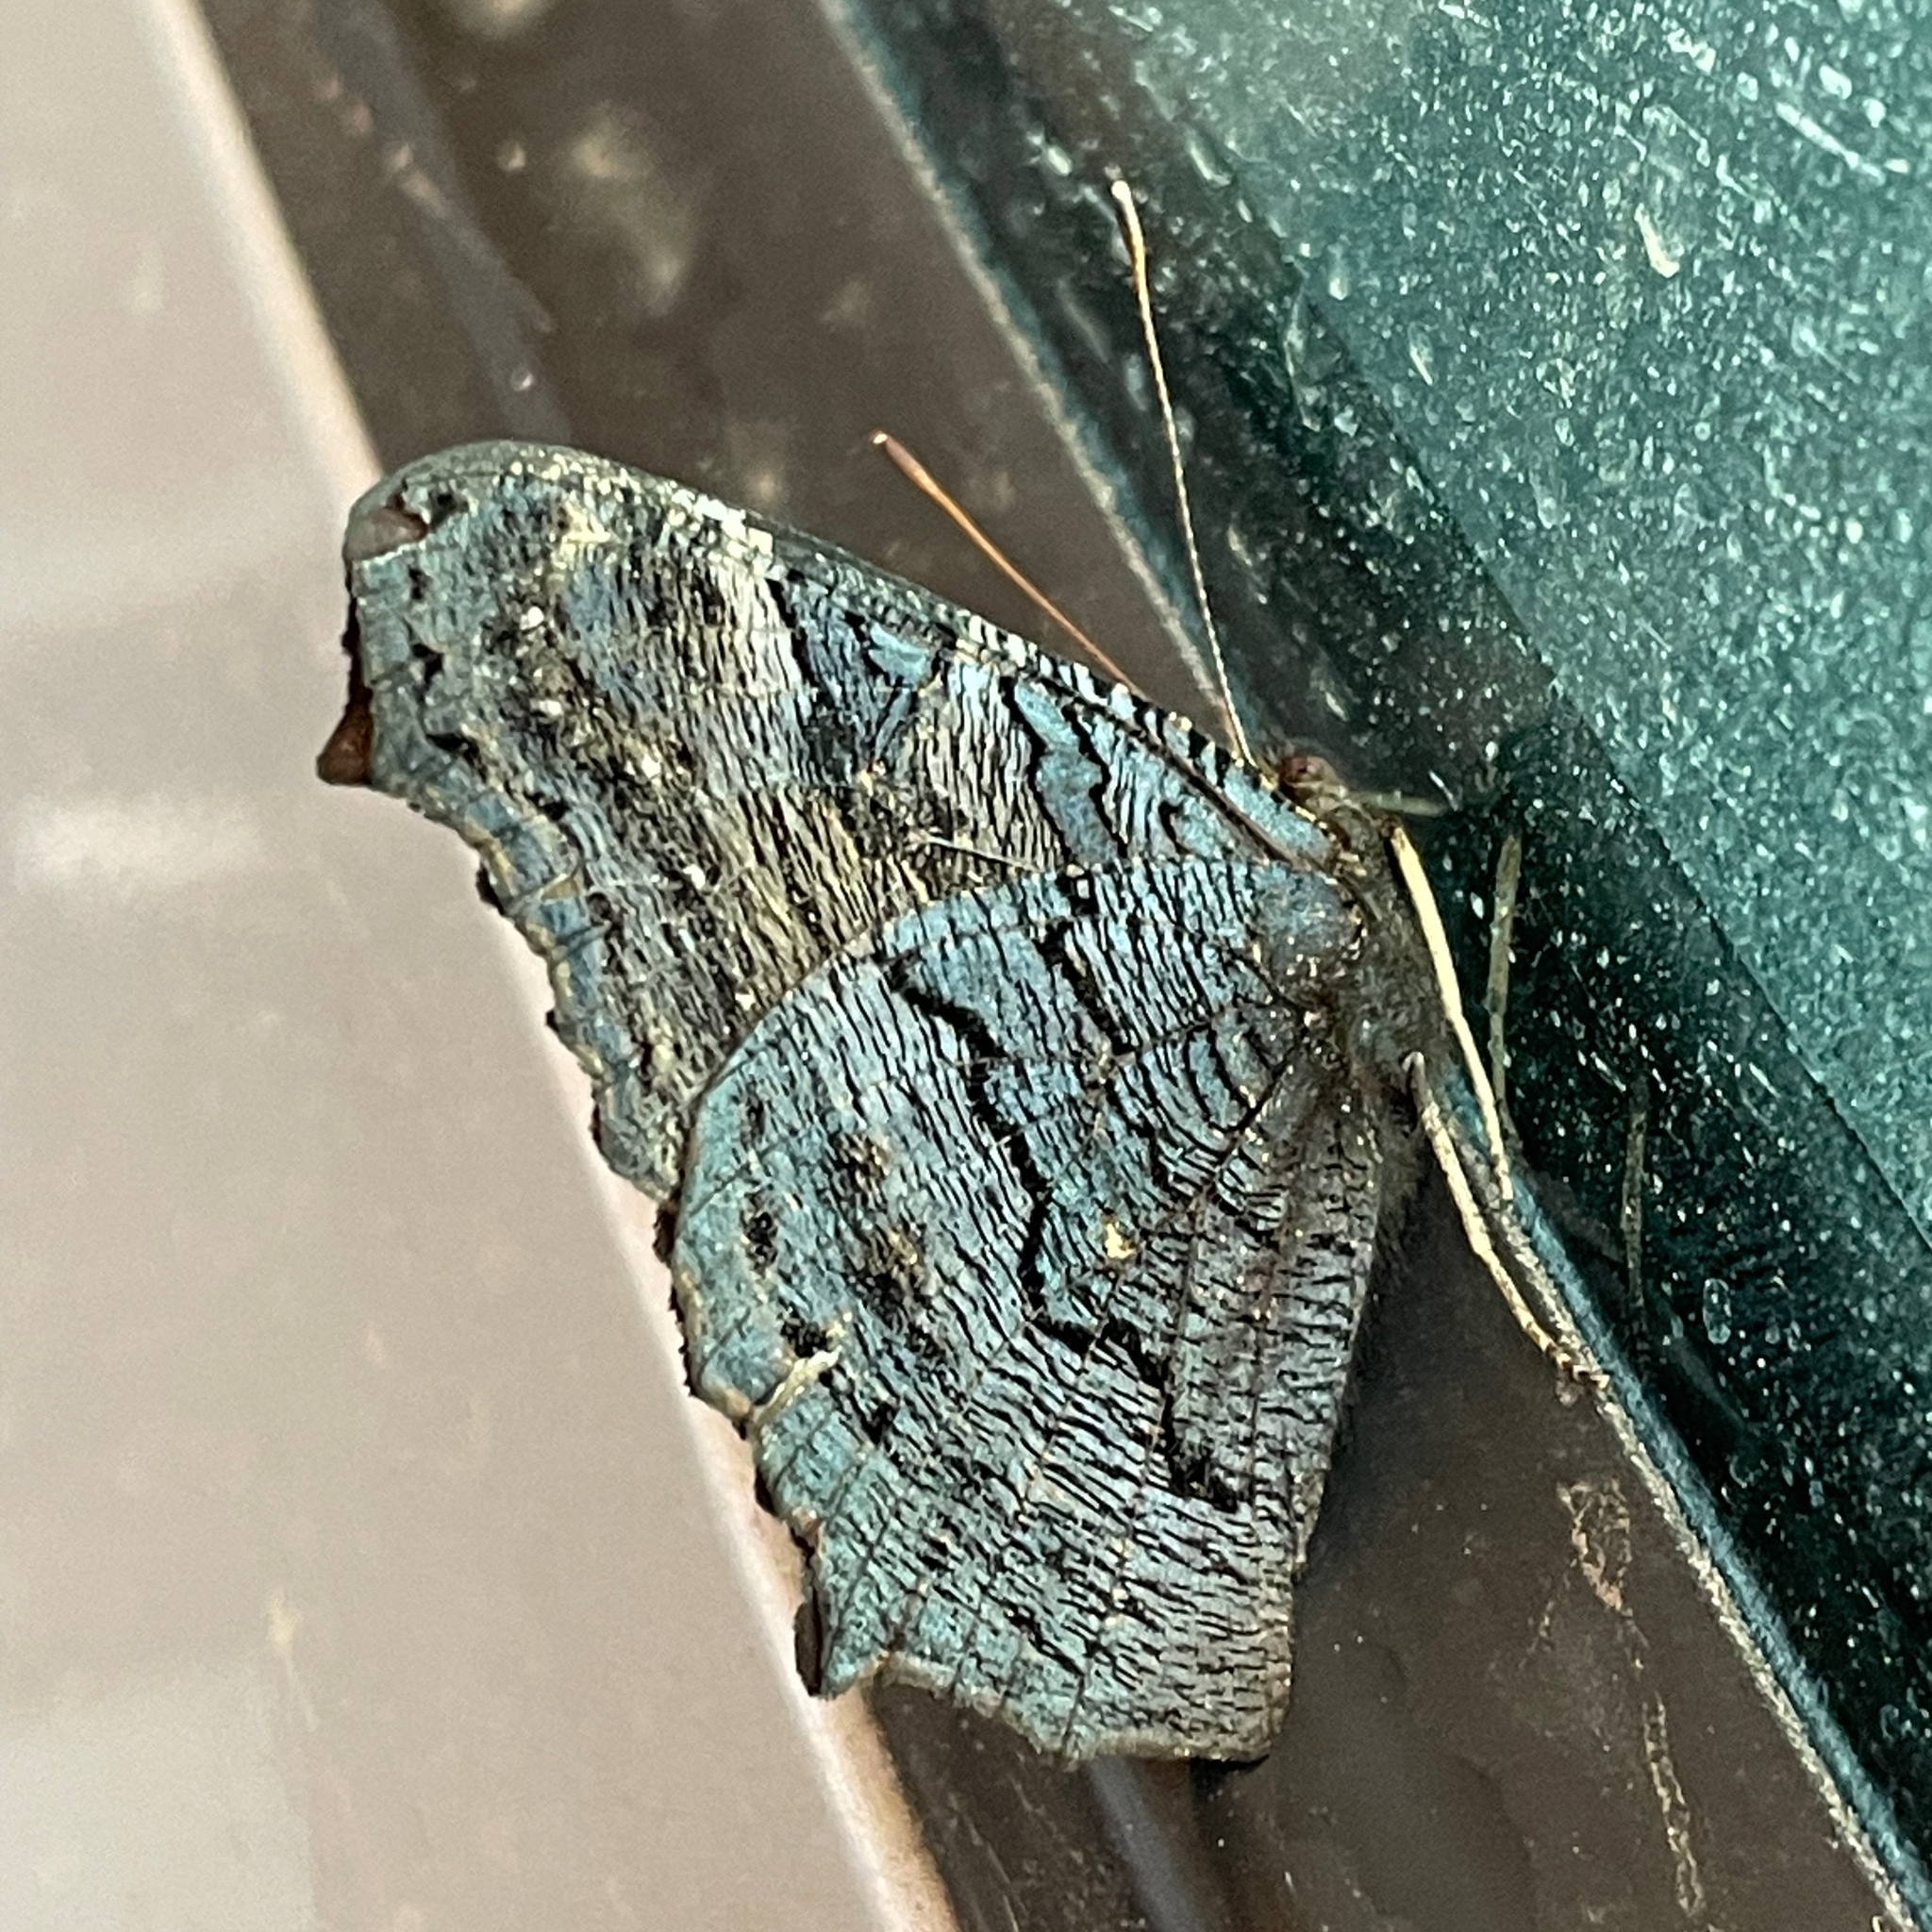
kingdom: Animalia
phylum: Arthropoda
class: Insecta
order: Lepidoptera
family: Nymphalidae
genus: Aglais
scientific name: Aglais io
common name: Peacock
